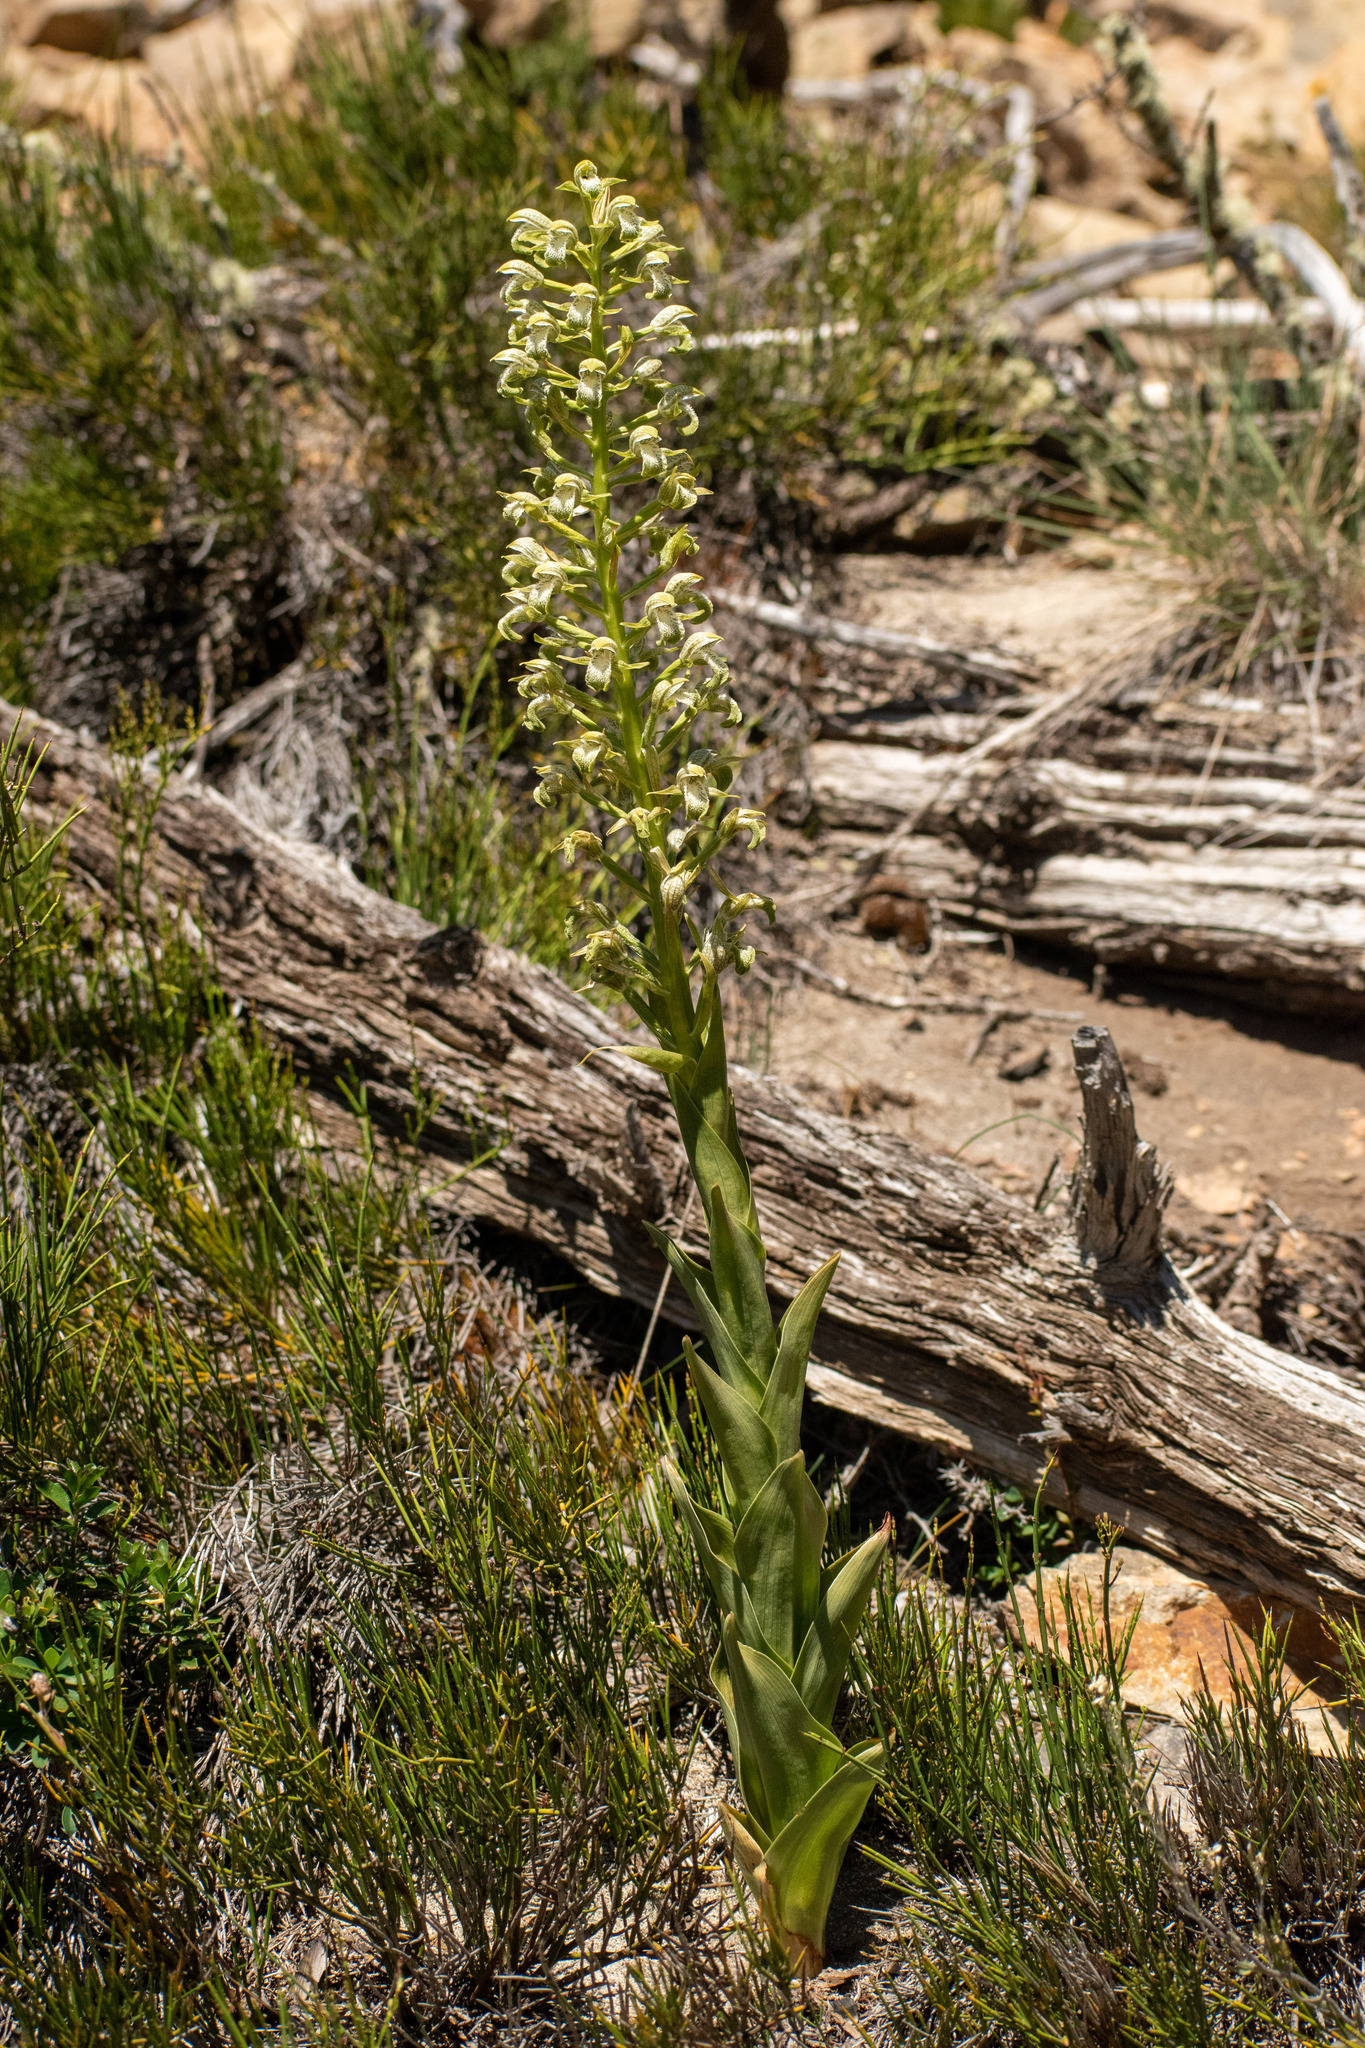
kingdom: Plantae
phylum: Tracheophyta
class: Liliopsida
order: Asparagales
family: Orchidaceae
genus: Chloraea
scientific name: Chloraea cylindrostachya
